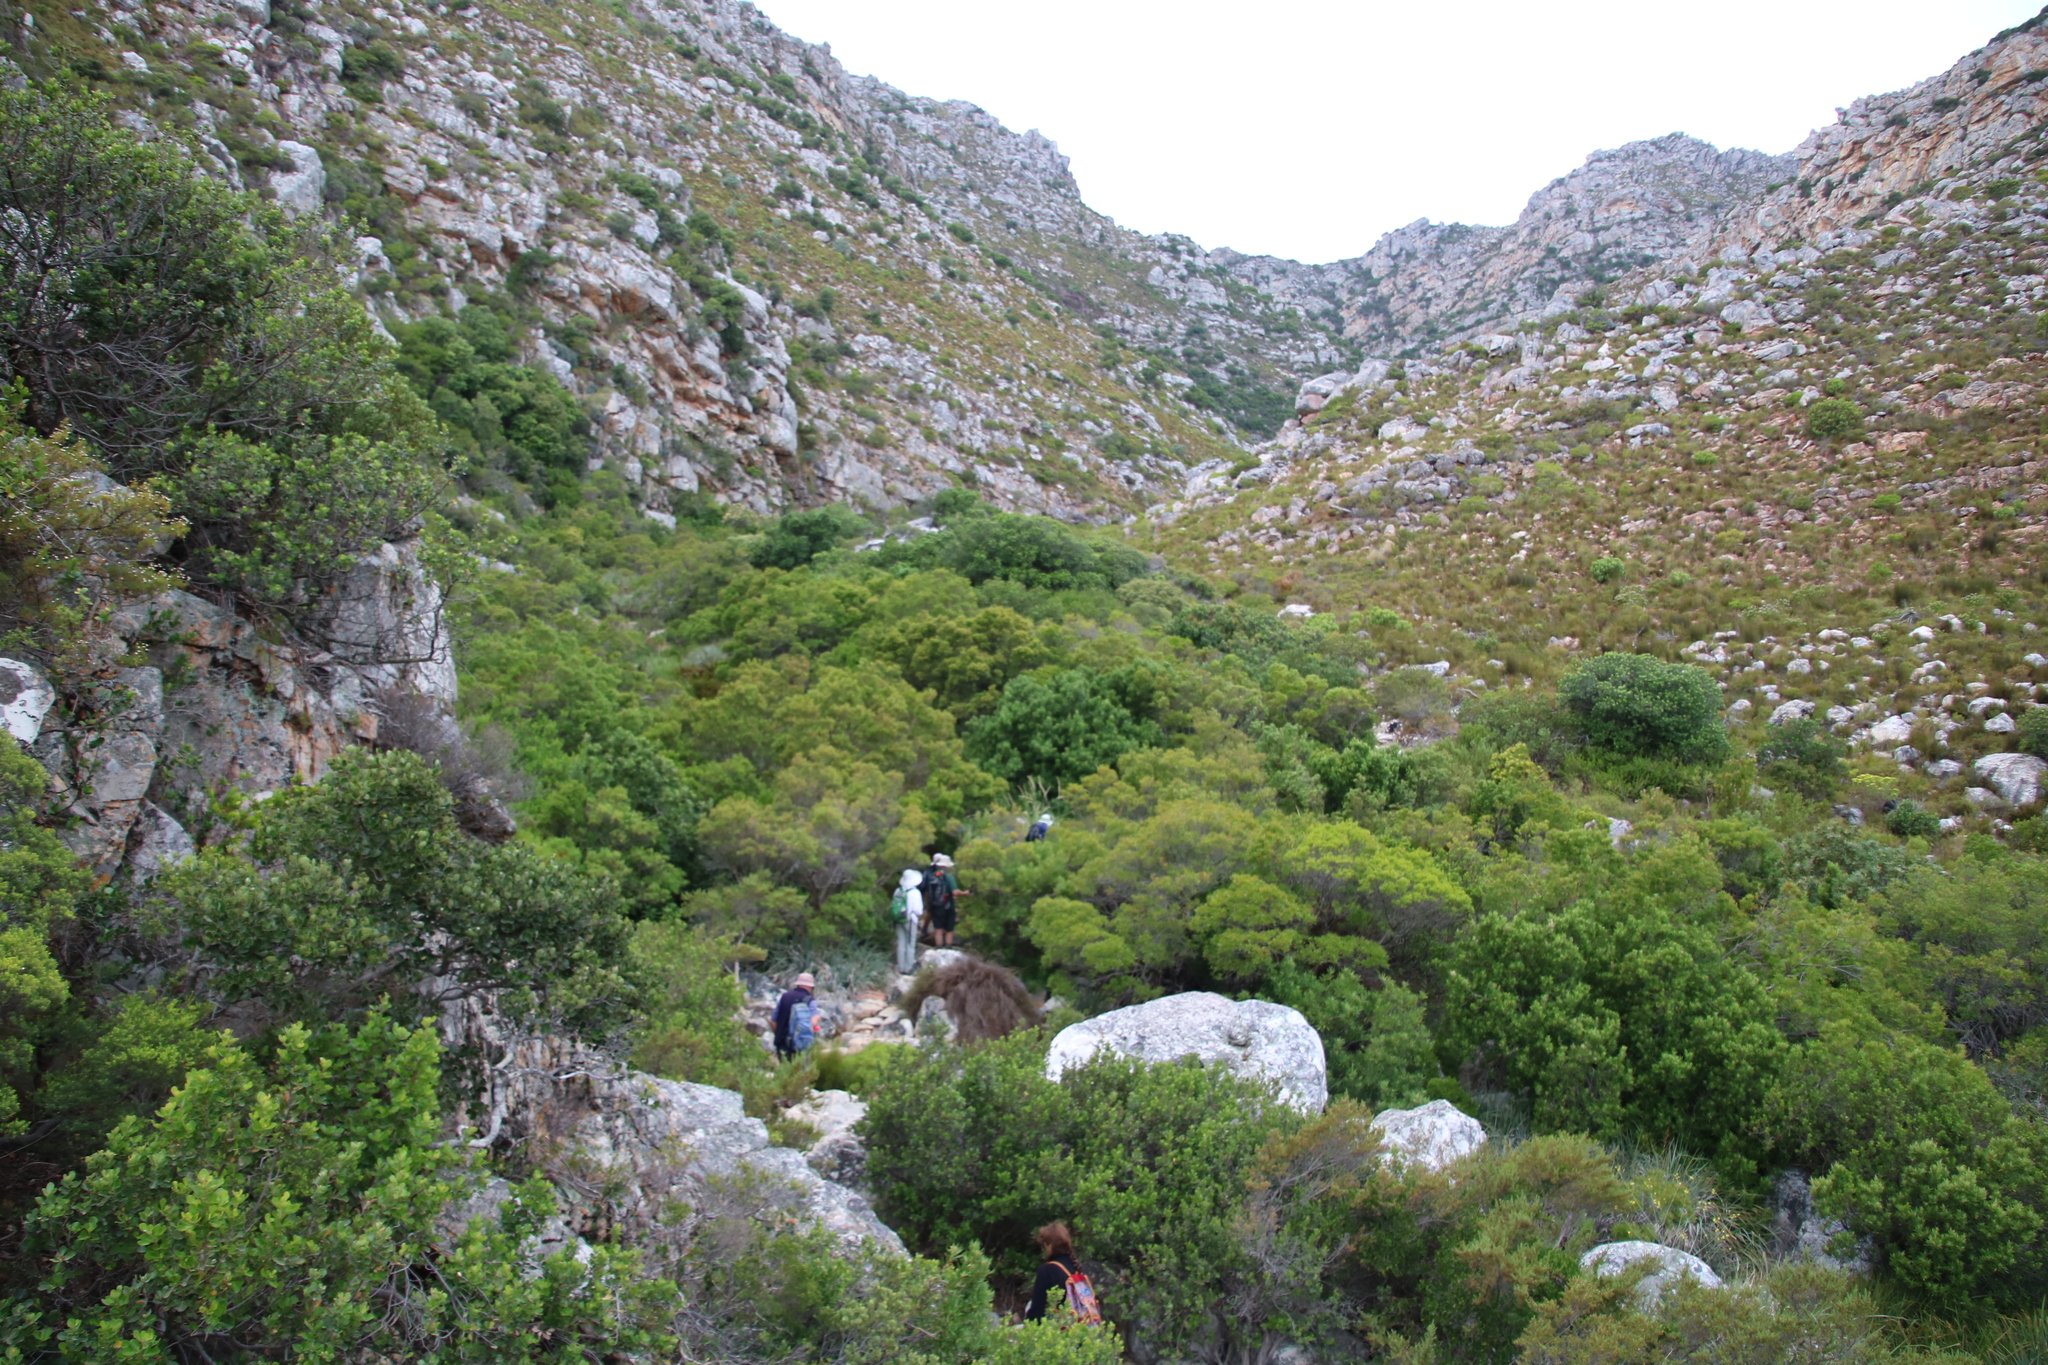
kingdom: Plantae
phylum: Tracheophyta
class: Magnoliopsida
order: Myrtales
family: Myrtaceae
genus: Callistemon
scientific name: Callistemon lanceolatus
